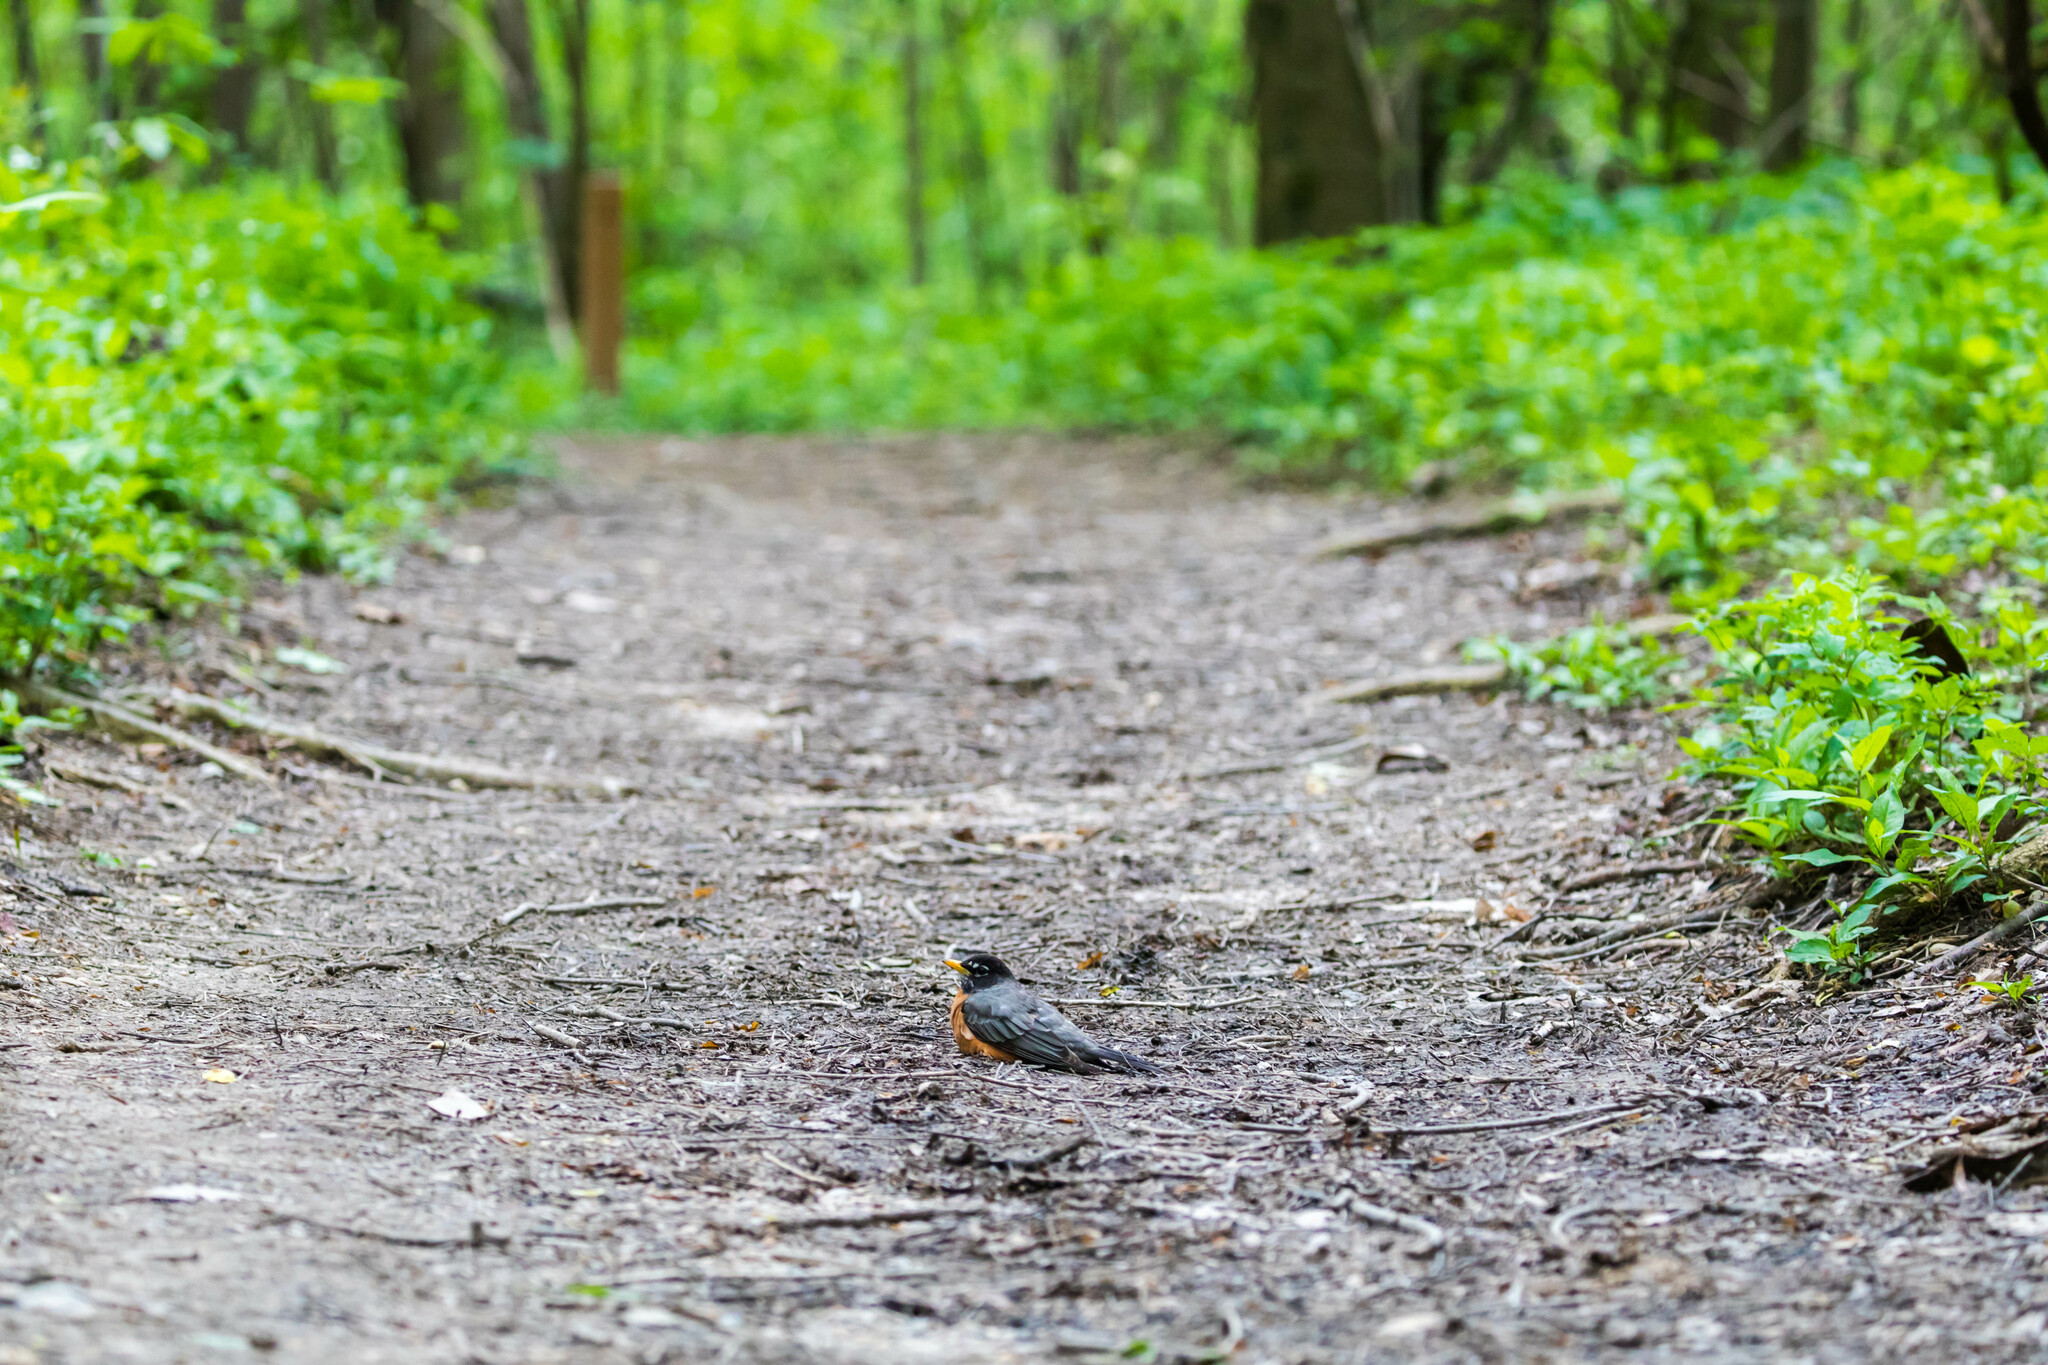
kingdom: Animalia
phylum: Chordata
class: Aves
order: Passeriformes
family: Turdidae
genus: Turdus
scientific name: Turdus migratorius
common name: American robin
